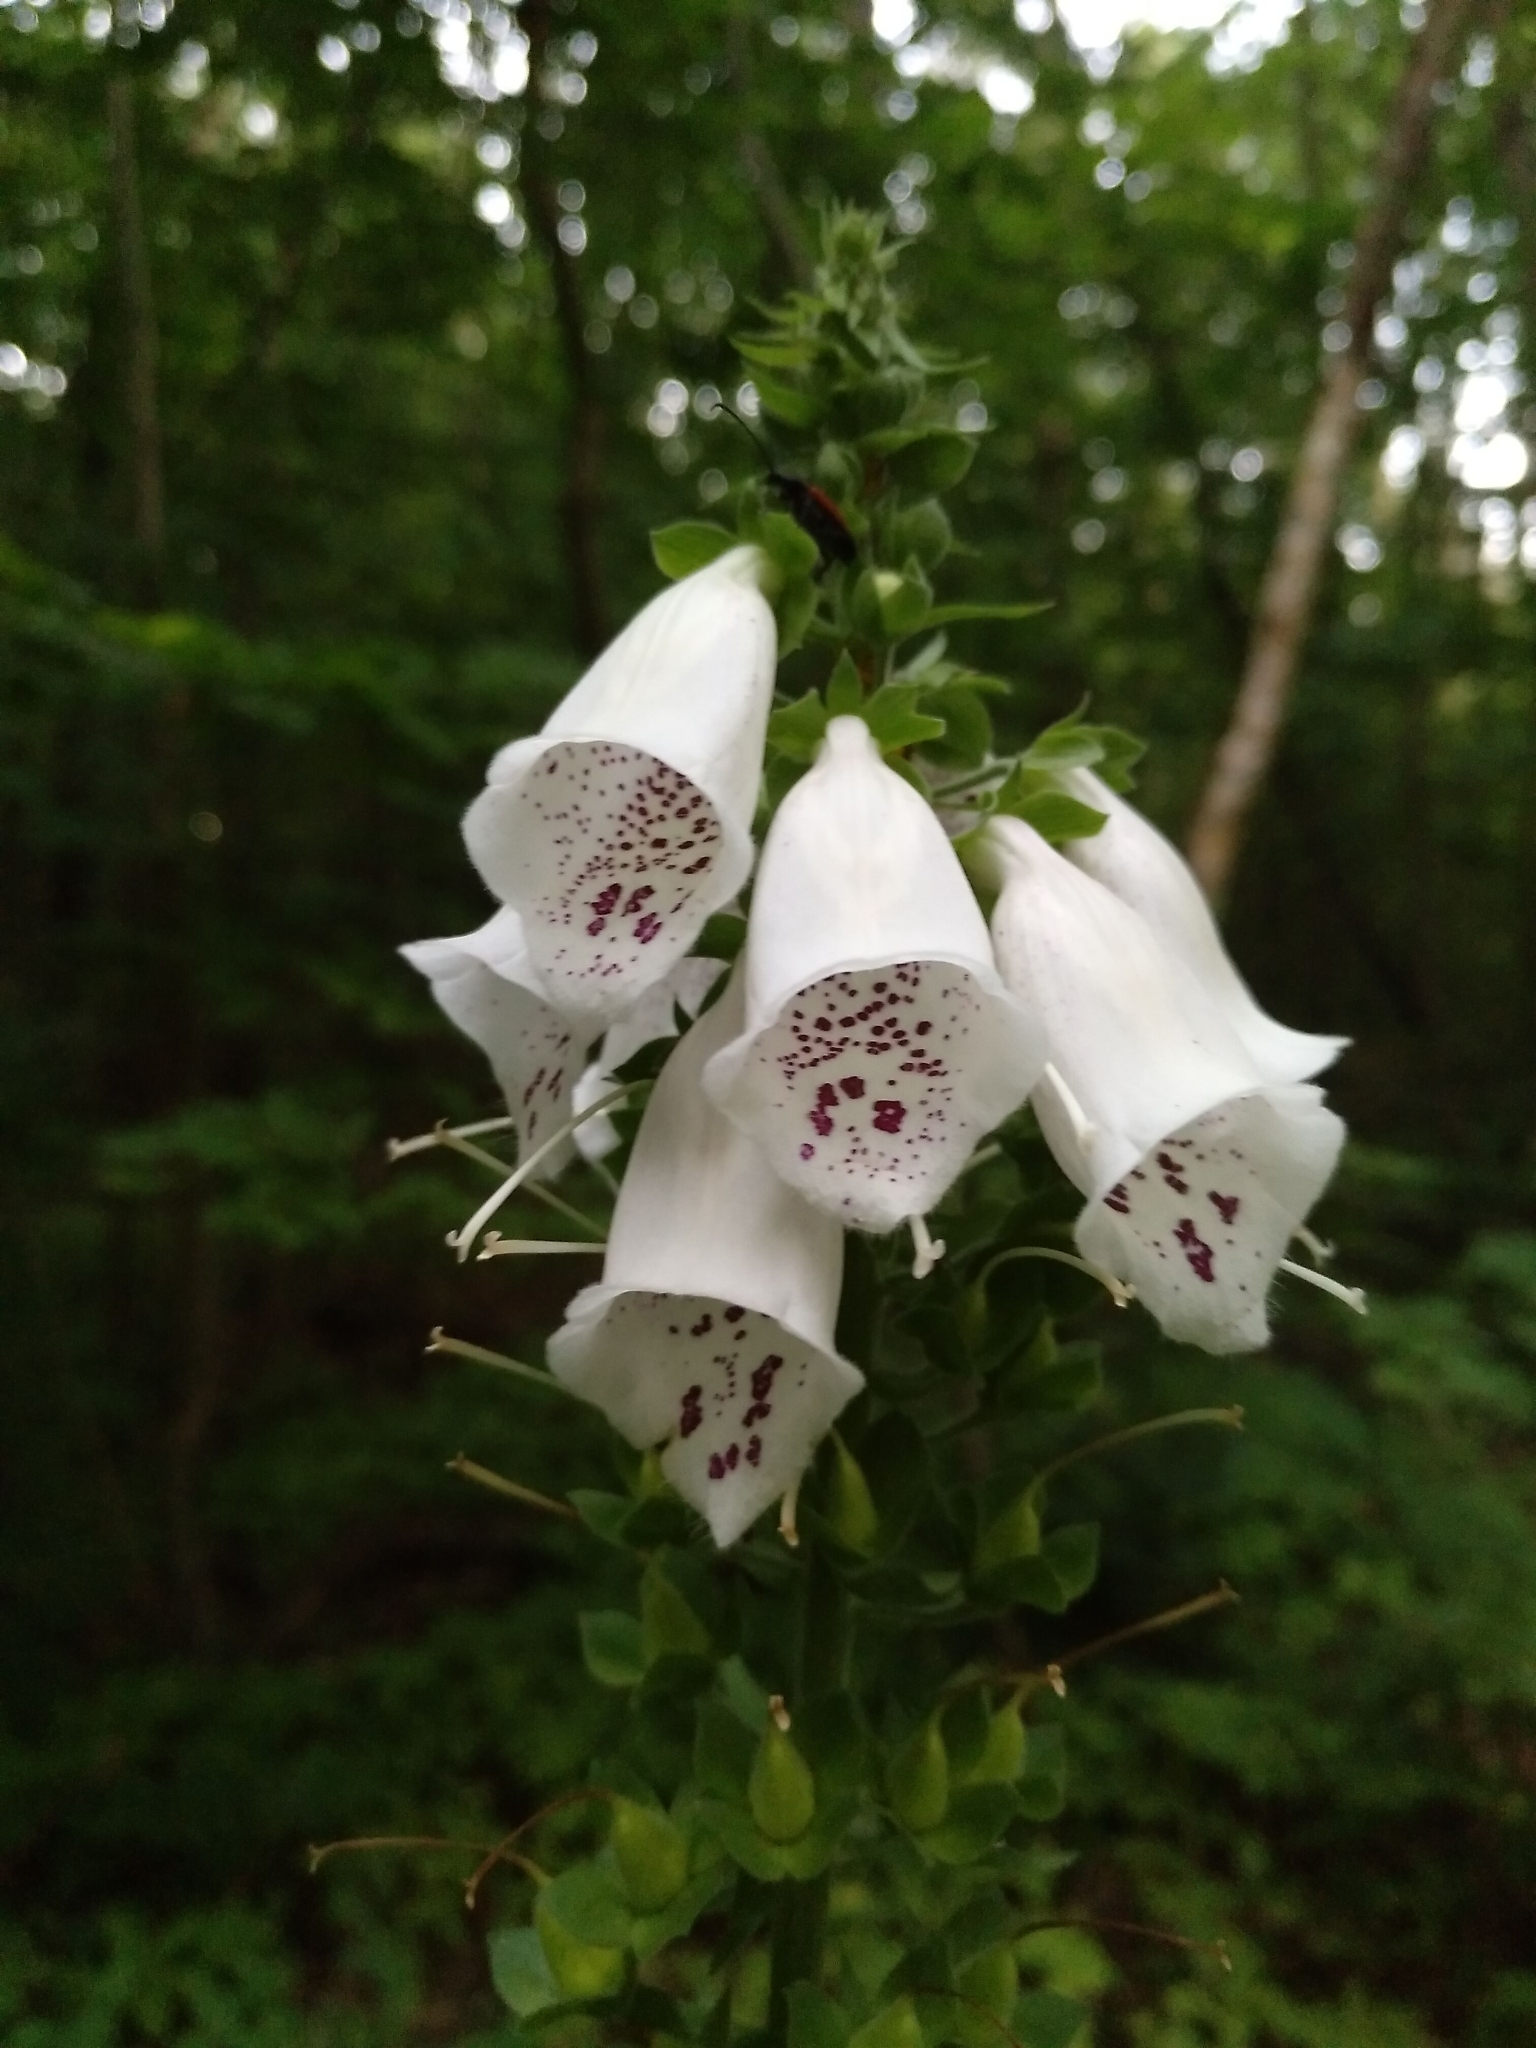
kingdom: Plantae
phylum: Tracheophyta
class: Magnoliopsida
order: Lamiales
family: Plantaginaceae
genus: Digitalis
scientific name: Digitalis purpurea
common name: Foxglove
